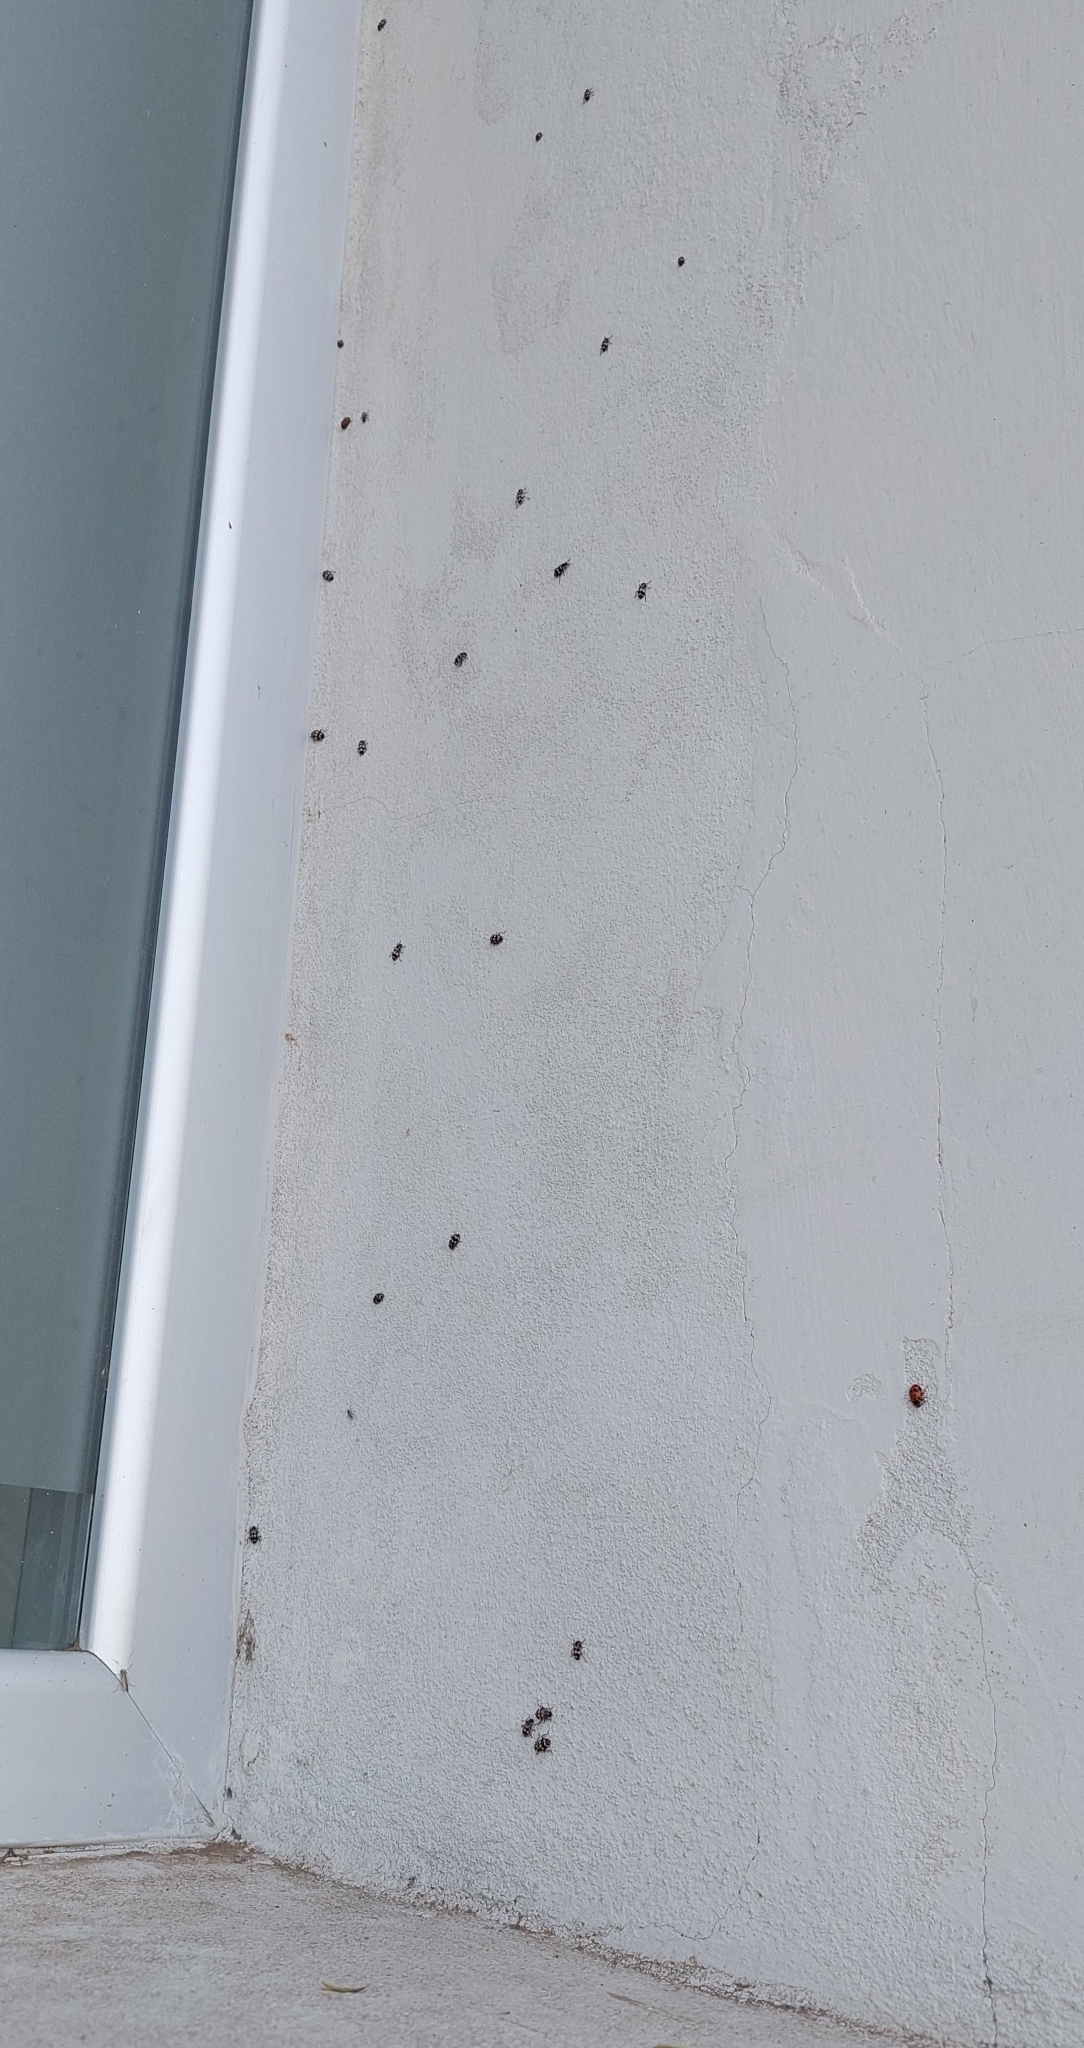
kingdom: Animalia
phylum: Arthropoda
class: Insecta
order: Coleoptera
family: Coccinellidae
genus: Eriopis
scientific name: Eriopis connexa
